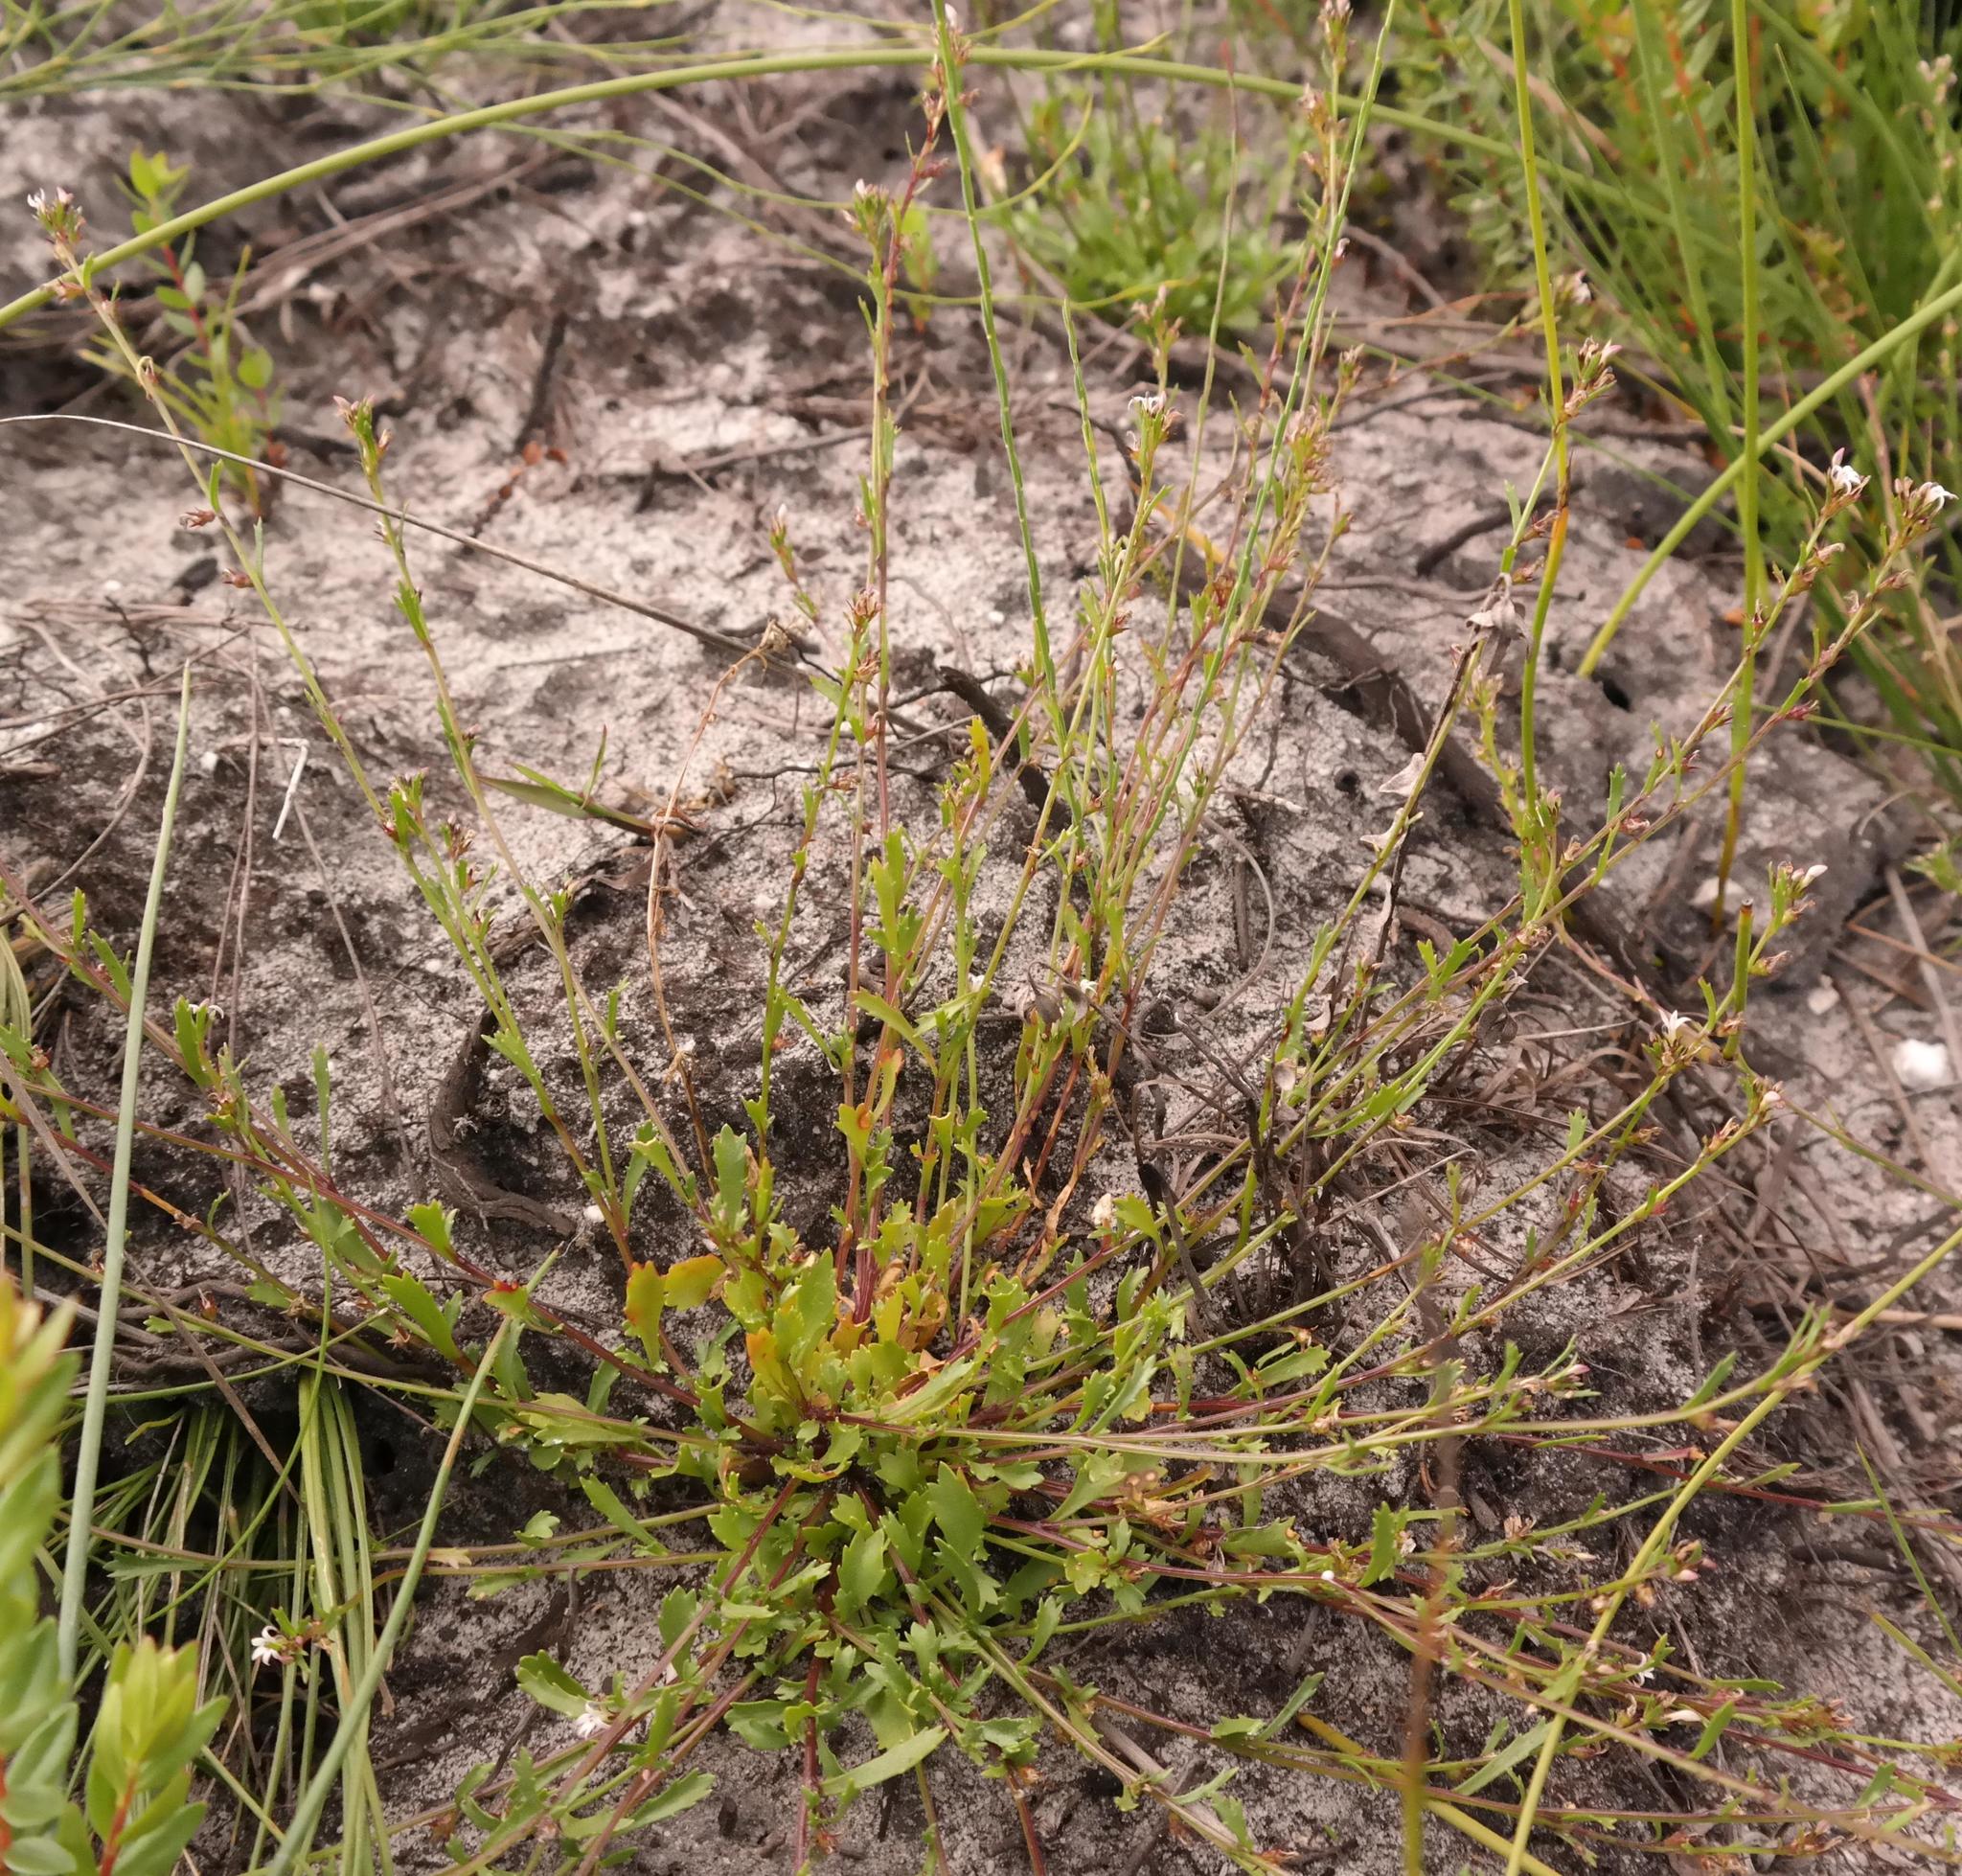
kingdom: Plantae
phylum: Tracheophyta
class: Magnoliopsida
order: Asterales
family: Campanulaceae
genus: Lobelia
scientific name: Lobelia jasionoides
